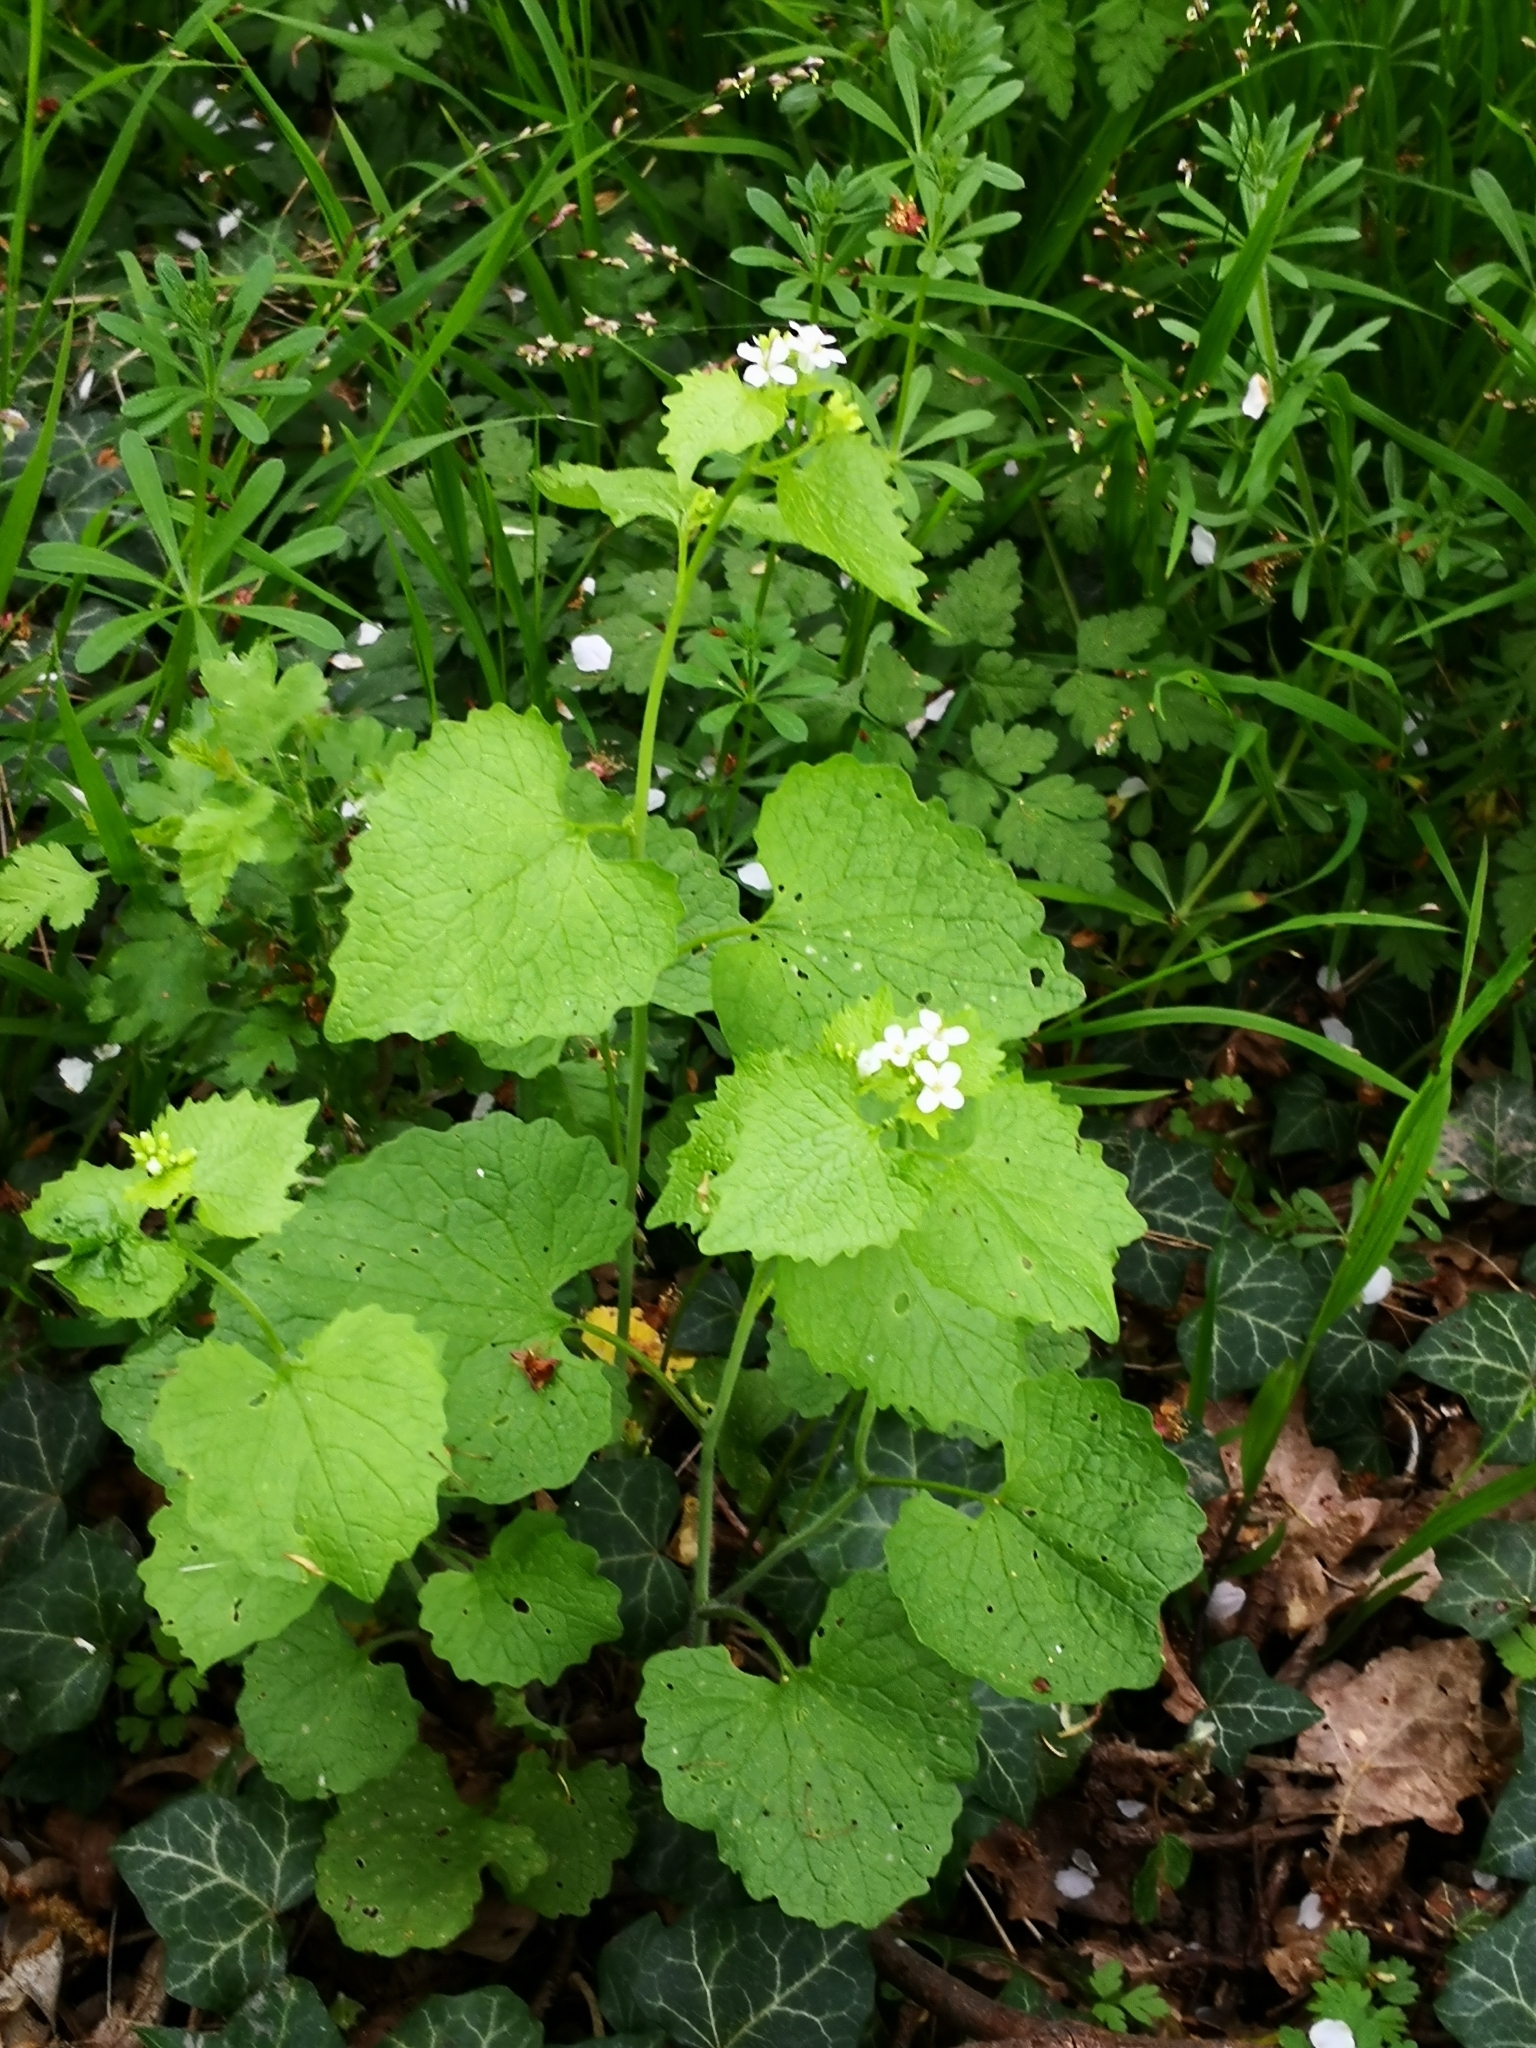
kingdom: Plantae
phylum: Tracheophyta
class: Magnoliopsida
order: Brassicales
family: Brassicaceae
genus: Alliaria
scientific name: Alliaria petiolata
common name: Garlic mustard
